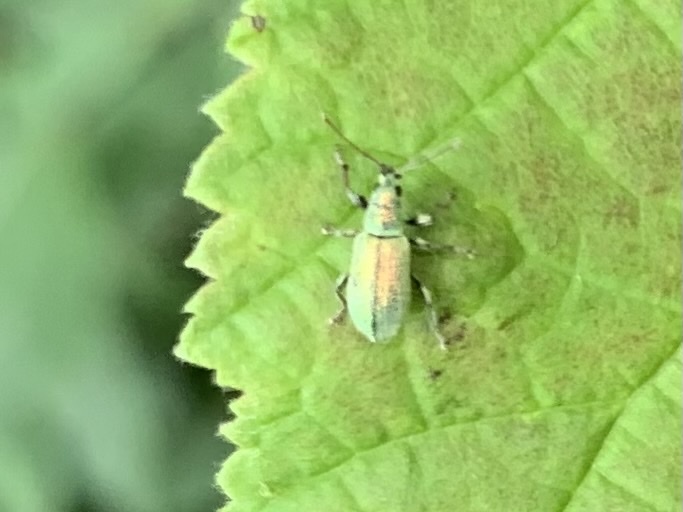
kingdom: Animalia
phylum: Arthropoda
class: Insecta
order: Coleoptera
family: Curculionidae
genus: Phyllobius
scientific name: Phyllobius argentatus
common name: Silver-green leaf weevil
